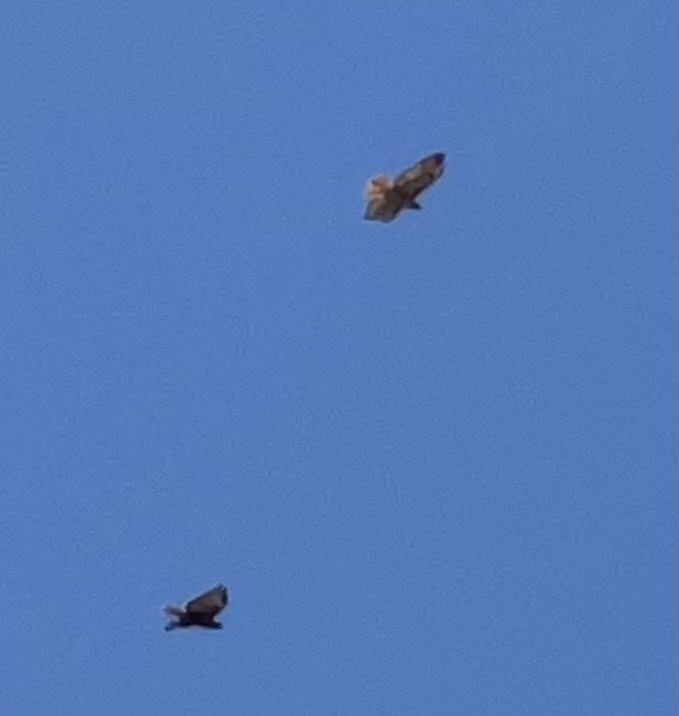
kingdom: Animalia
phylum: Chordata
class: Aves
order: Accipitriformes
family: Accipitridae
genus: Buteo
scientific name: Buteo jamaicensis
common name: Red-tailed hawk
